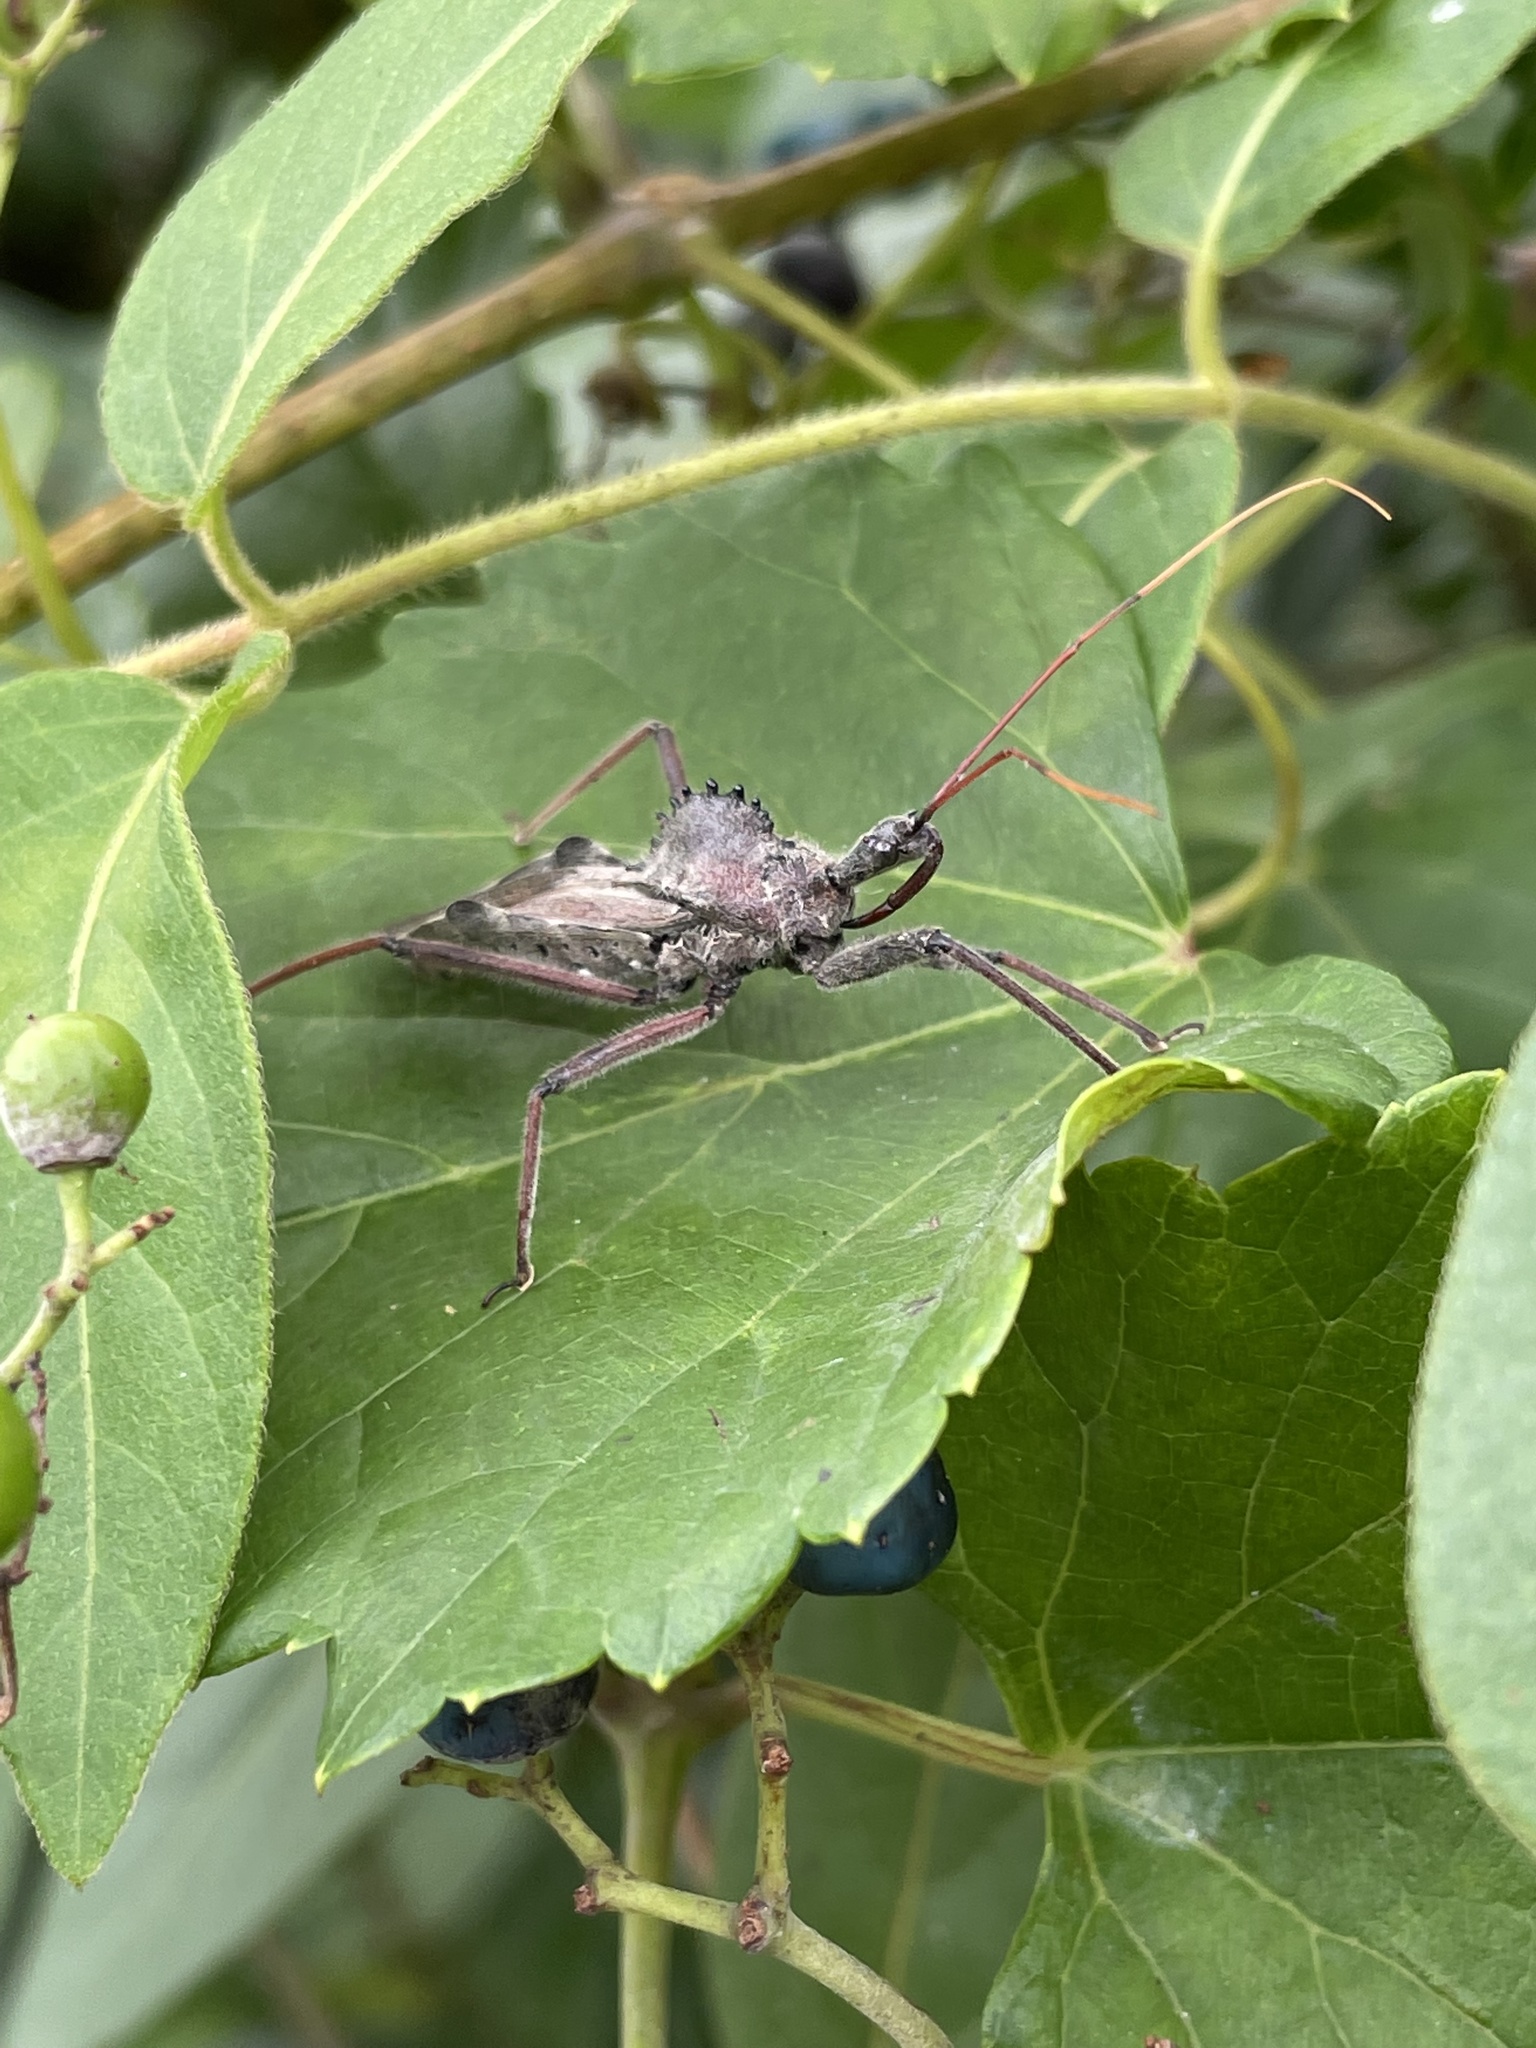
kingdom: Animalia
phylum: Arthropoda
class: Insecta
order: Hemiptera
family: Reduviidae
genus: Arilus
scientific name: Arilus cristatus
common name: North american wheel bug
